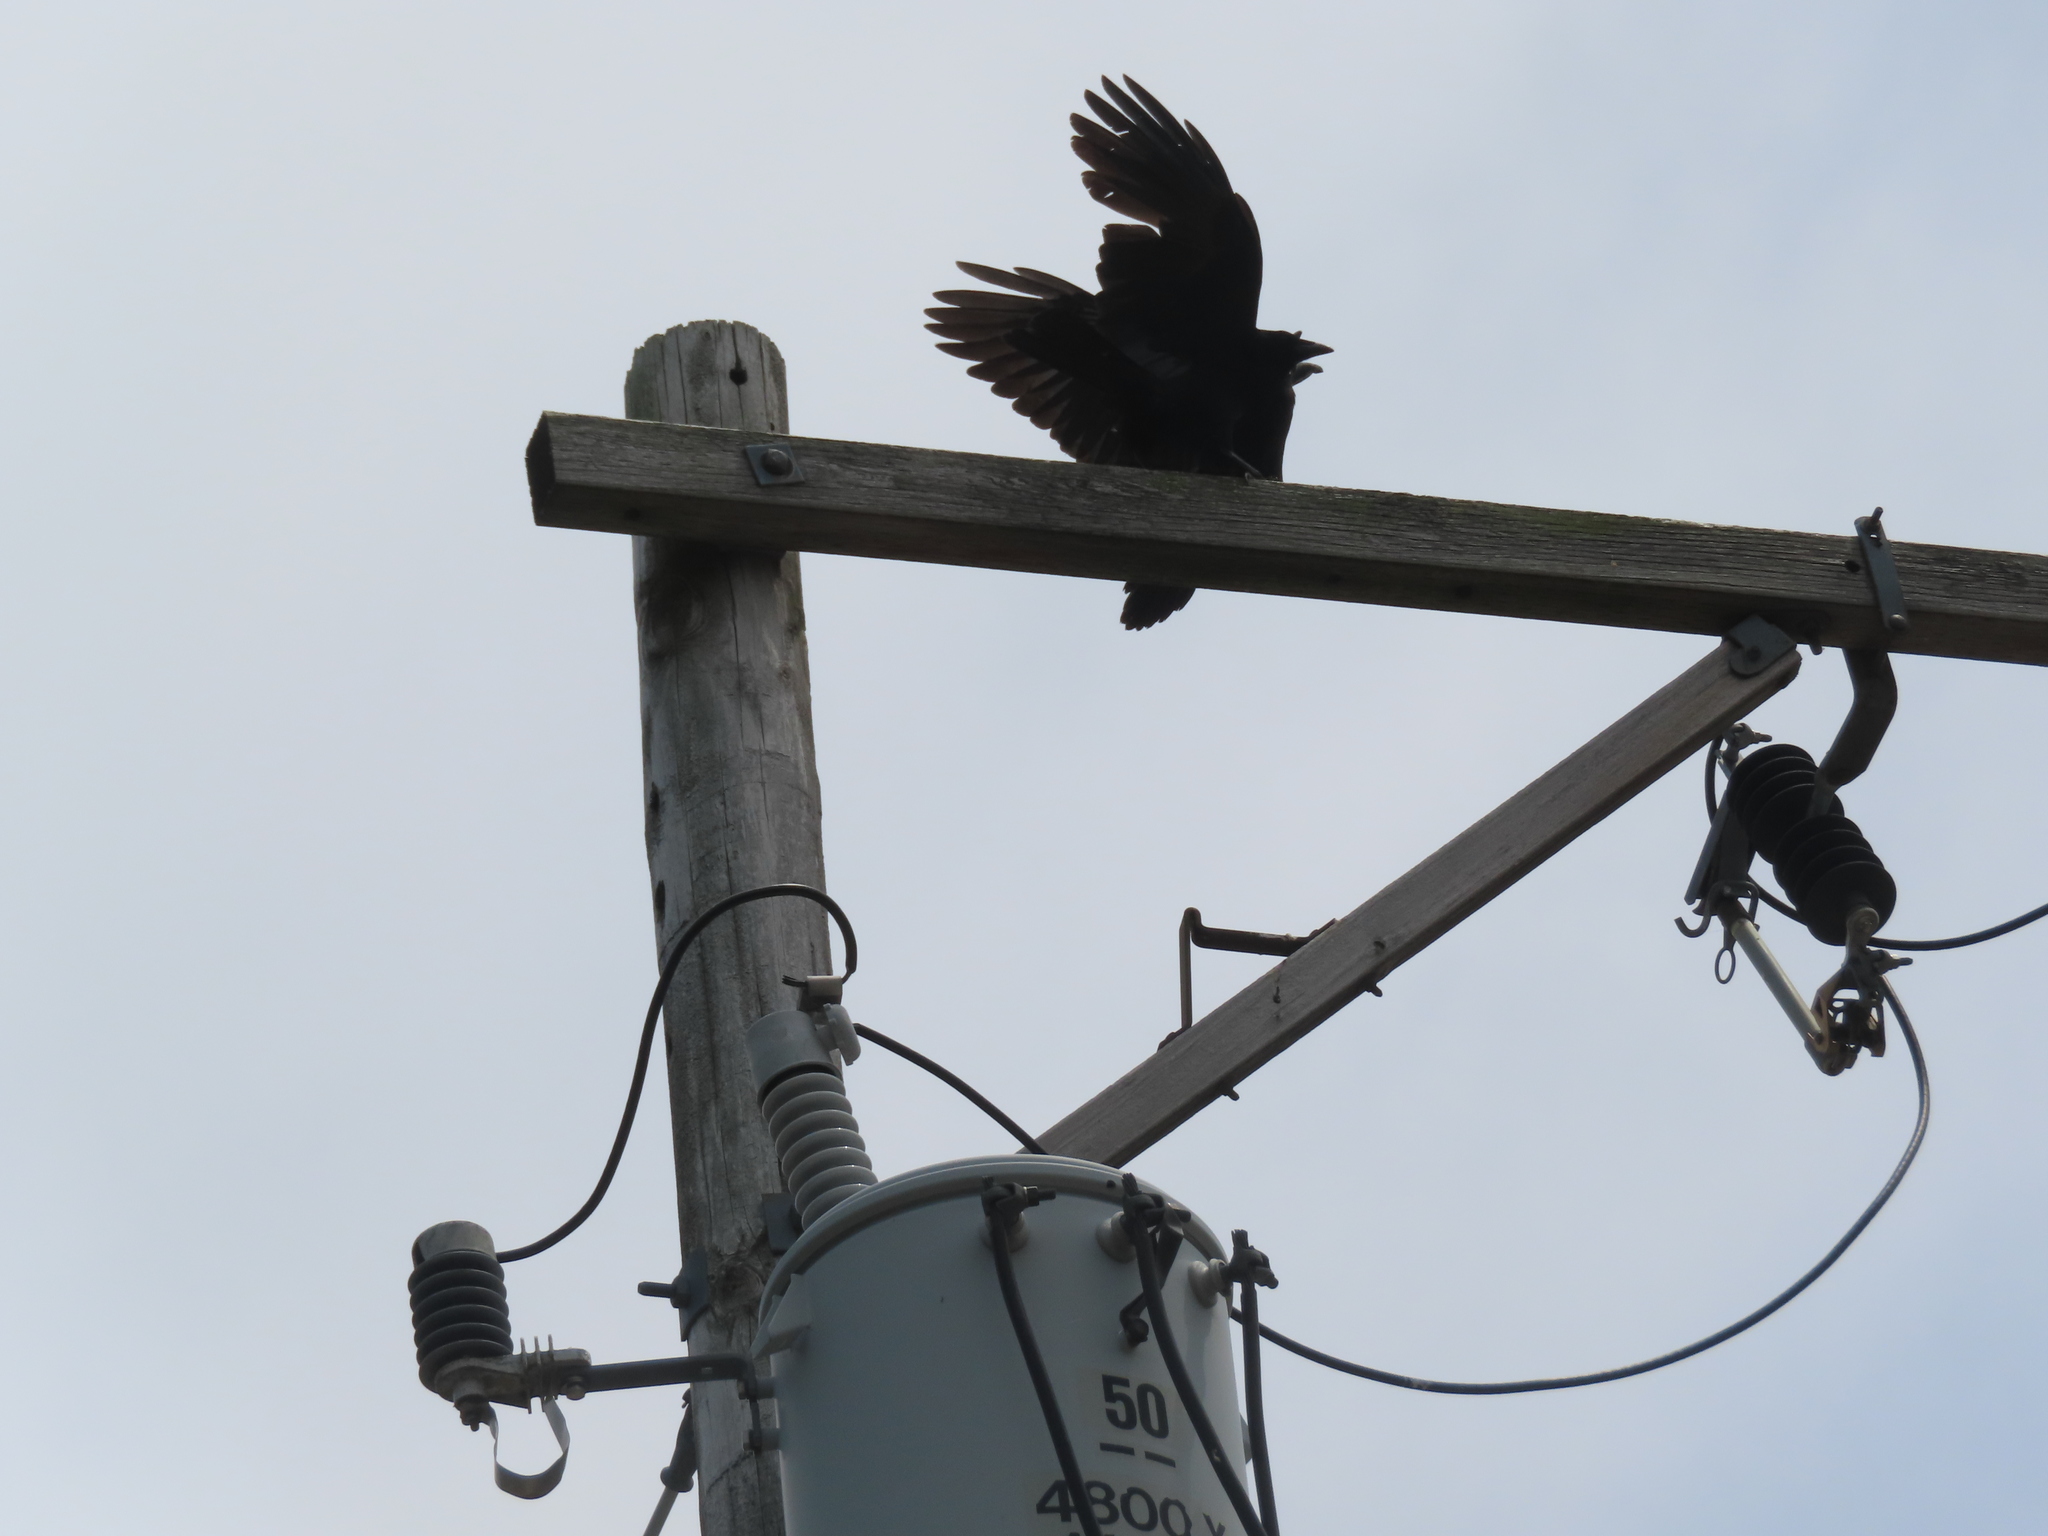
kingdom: Animalia
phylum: Chordata
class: Aves
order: Passeriformes
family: Corvidae
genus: Corvus
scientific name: Corvus brachyrhynchos
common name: American crow
